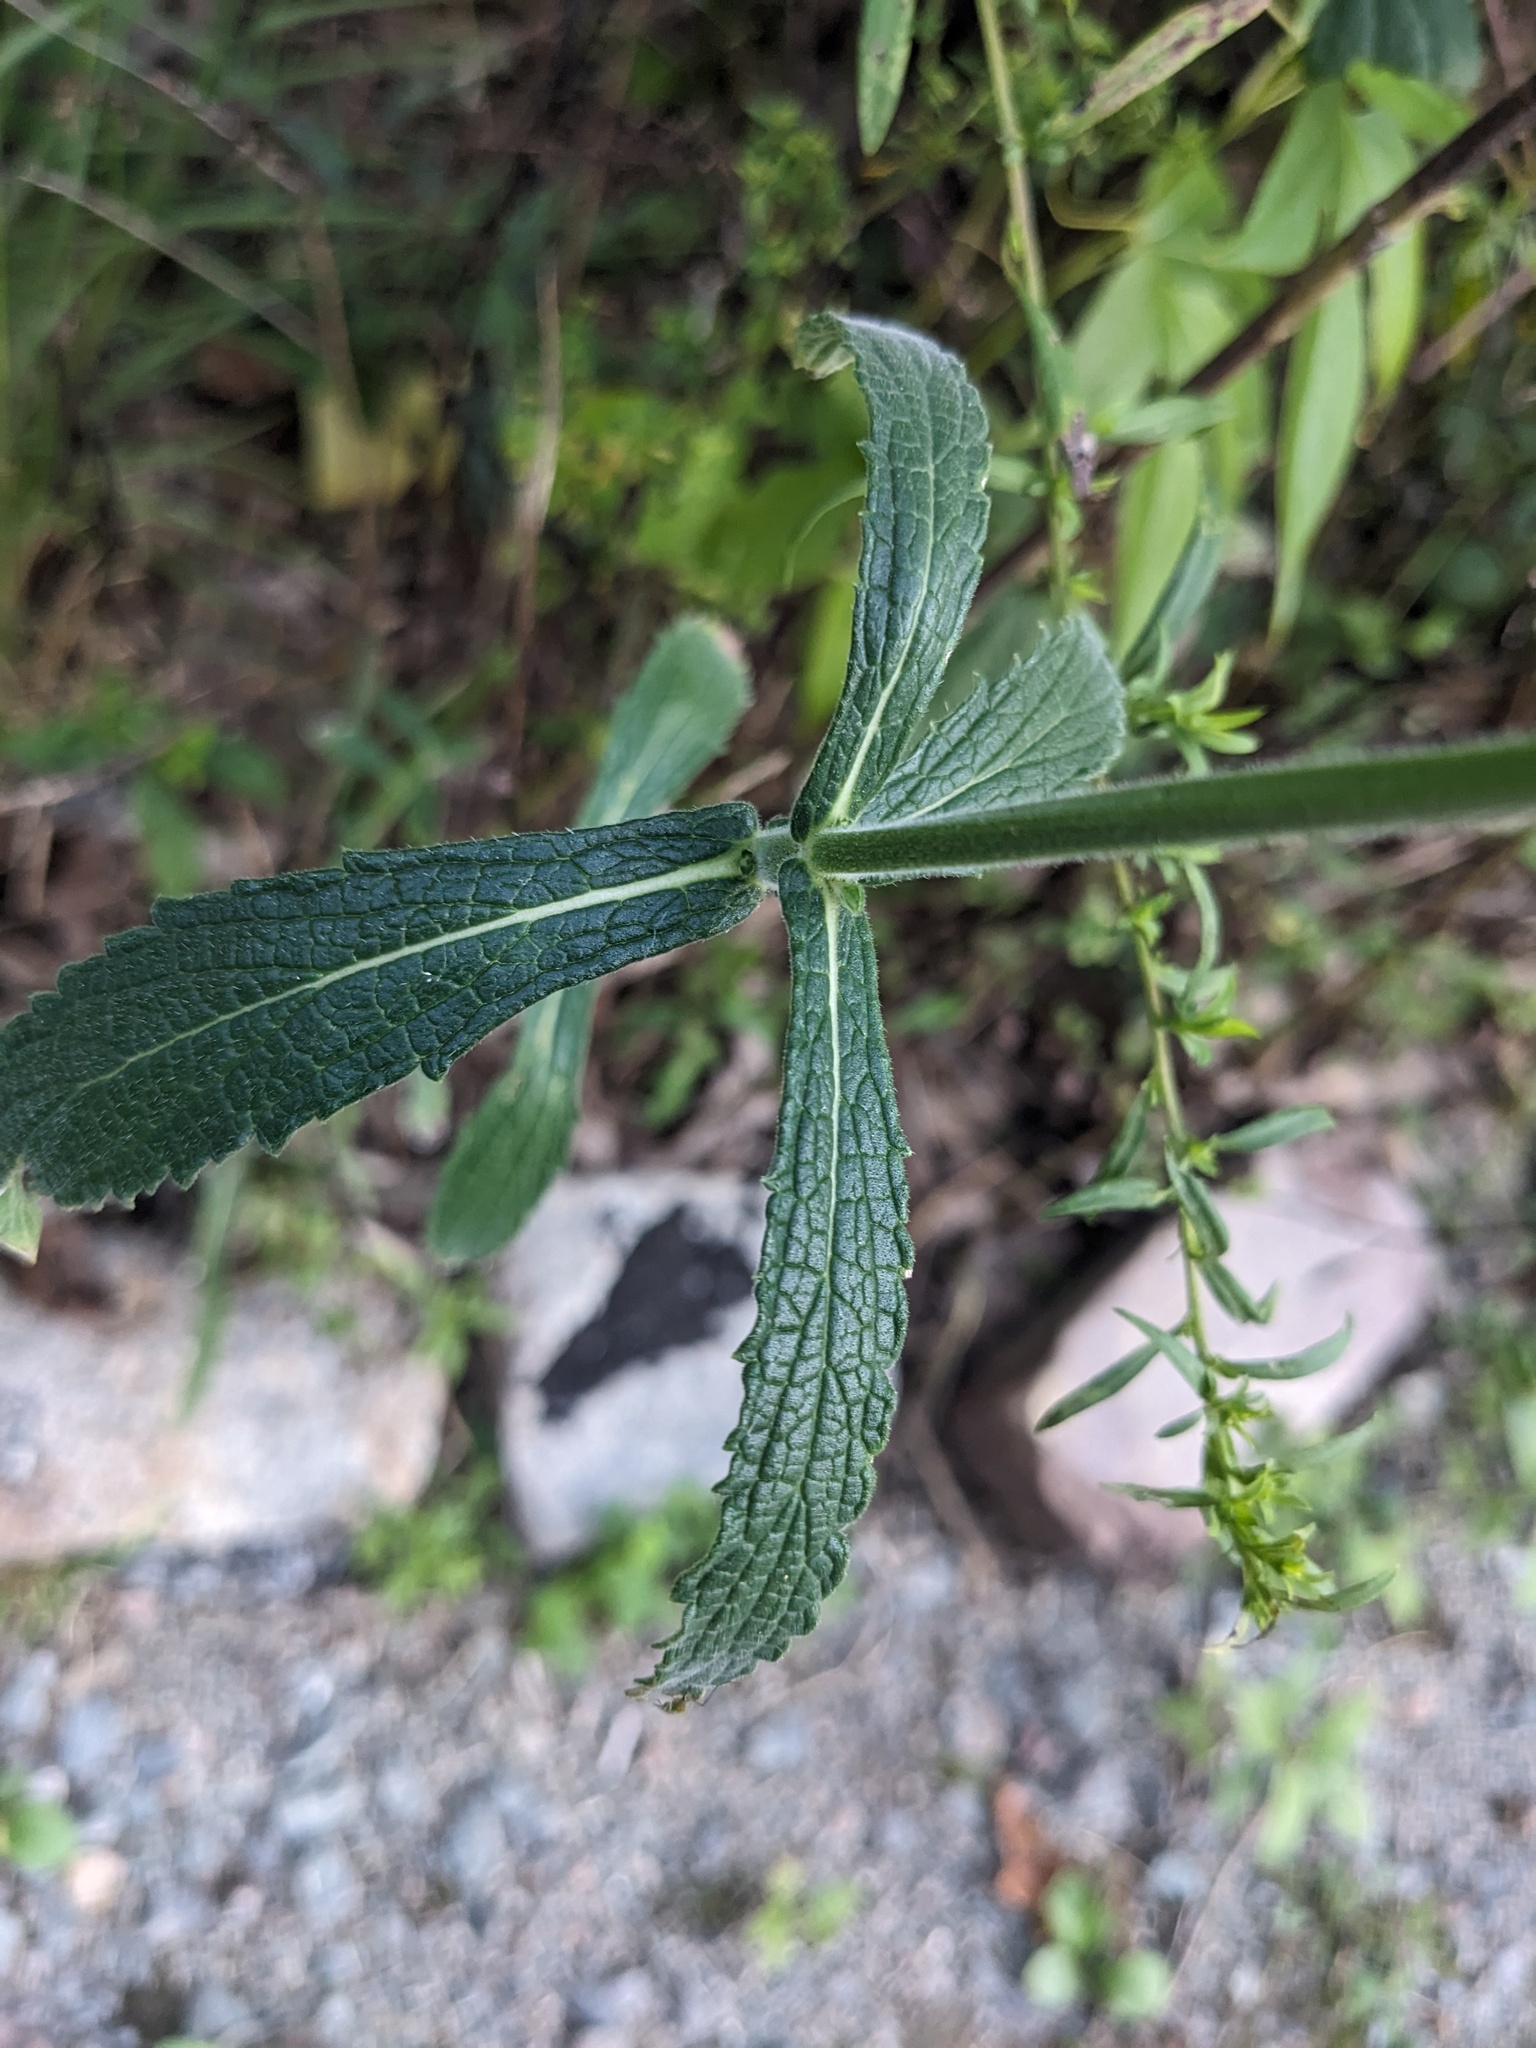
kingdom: Plantae
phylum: Tracheophyta
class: Magnoliopsida
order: Lamiales
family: Verbenaceae
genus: Verbena
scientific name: Verbena bonariensis
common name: Purpletop vervain
